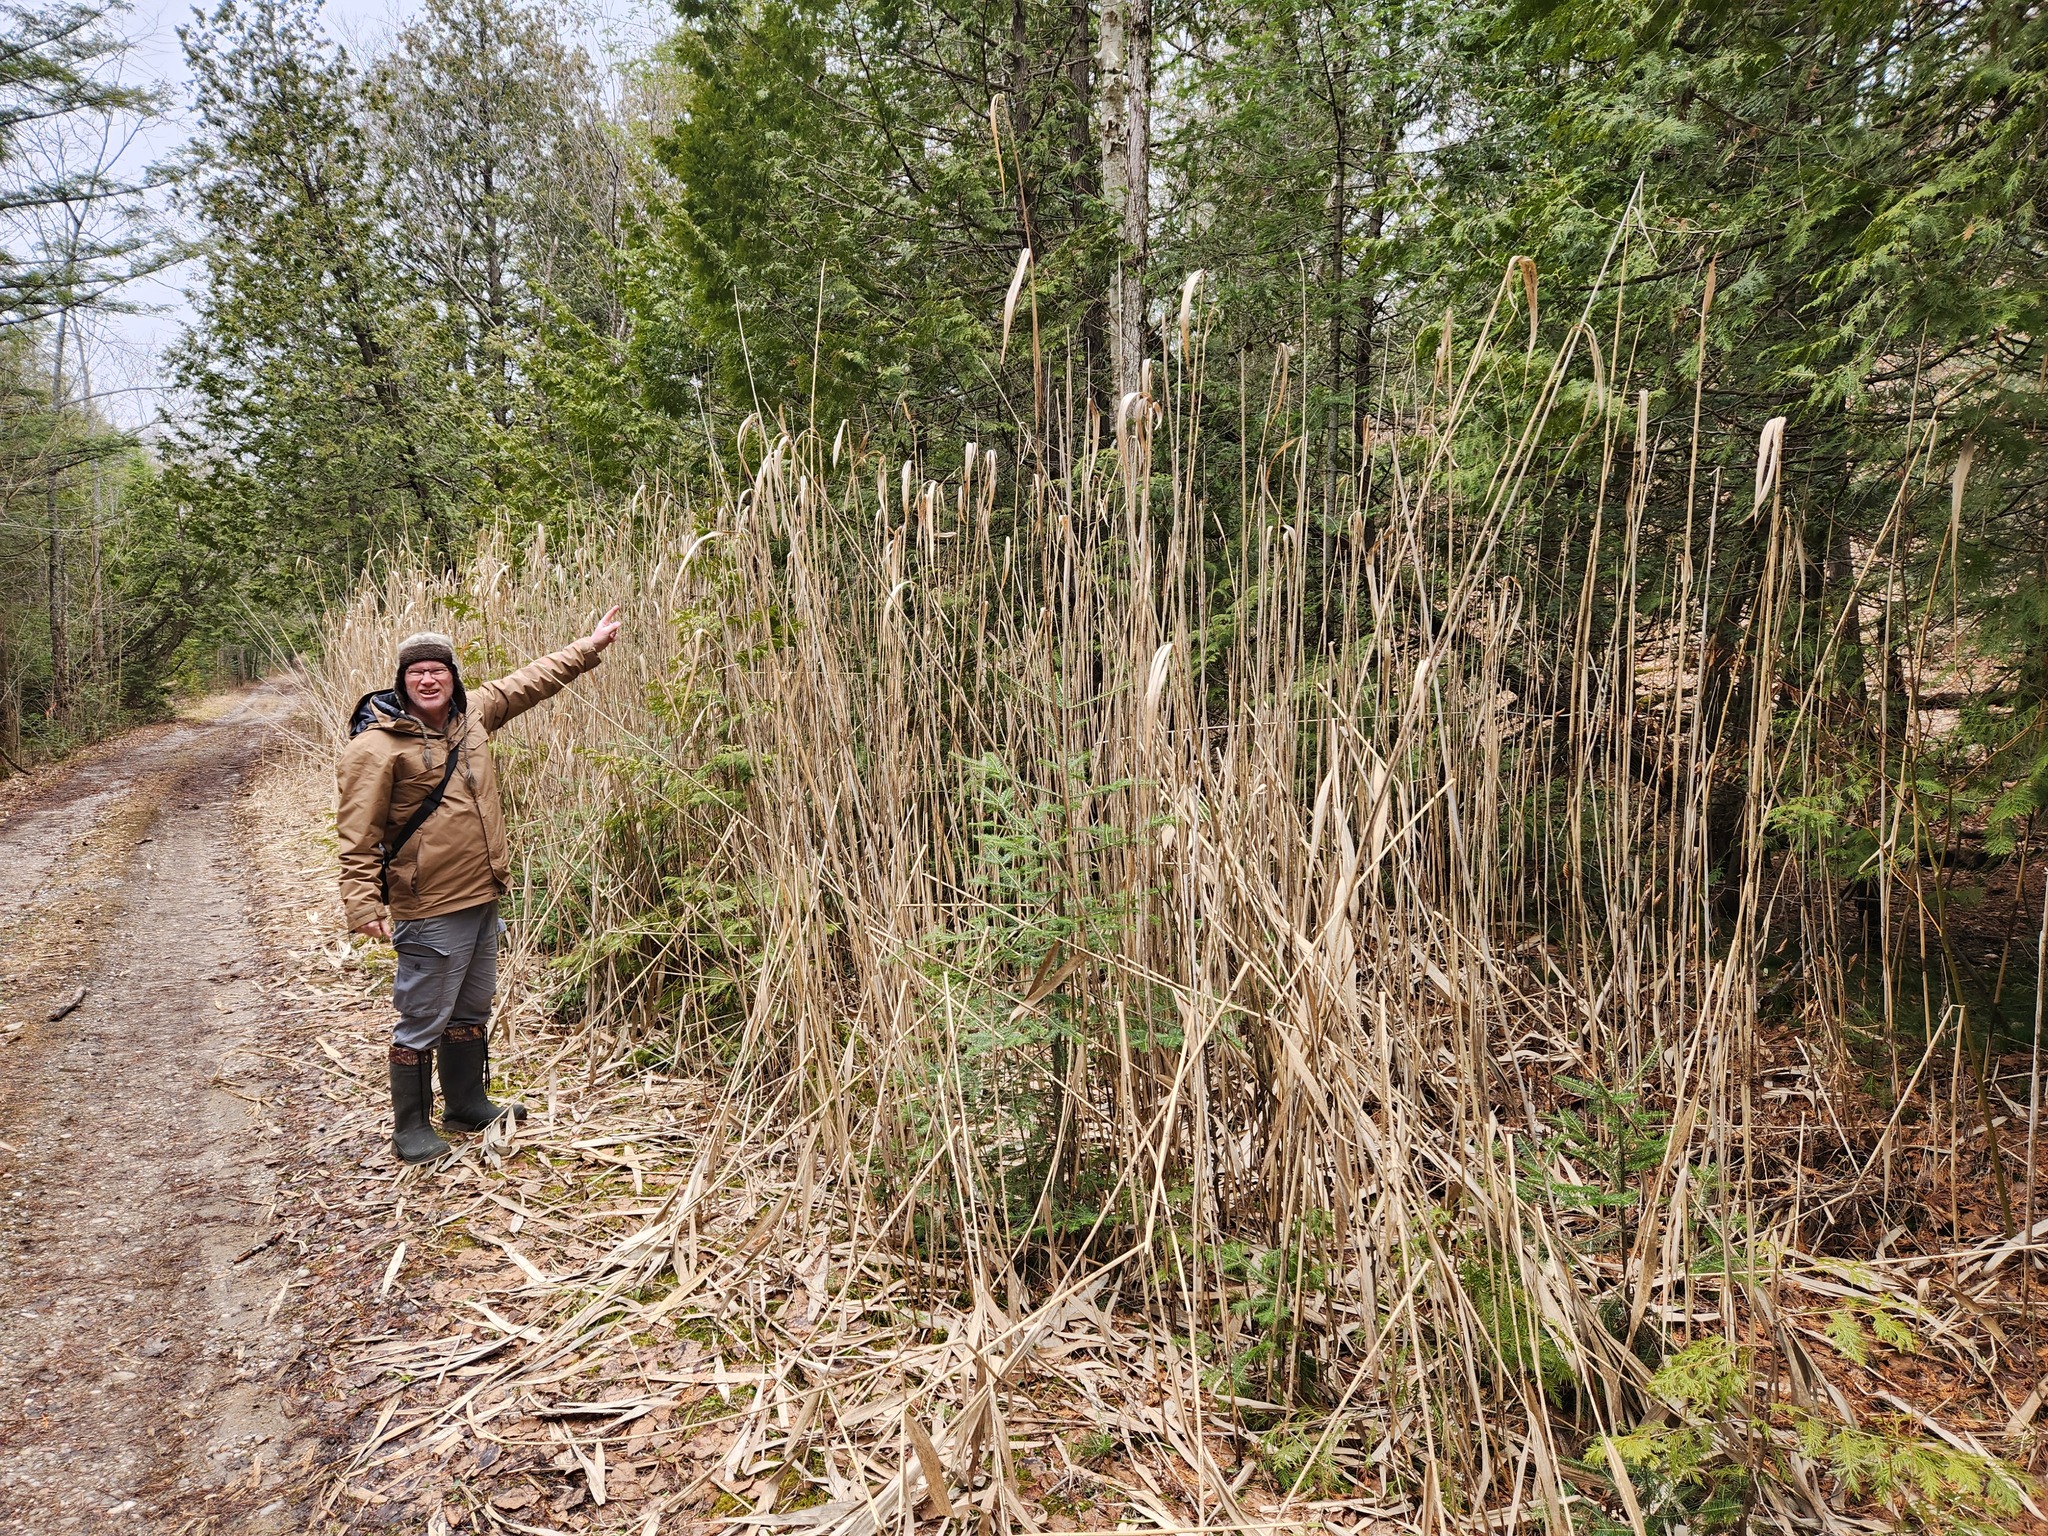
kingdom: Plantae
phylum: Tracheophyta
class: Liliopsida
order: Poales
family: Poaceae
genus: Phragmites
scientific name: Phragmites australis
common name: Common reed
